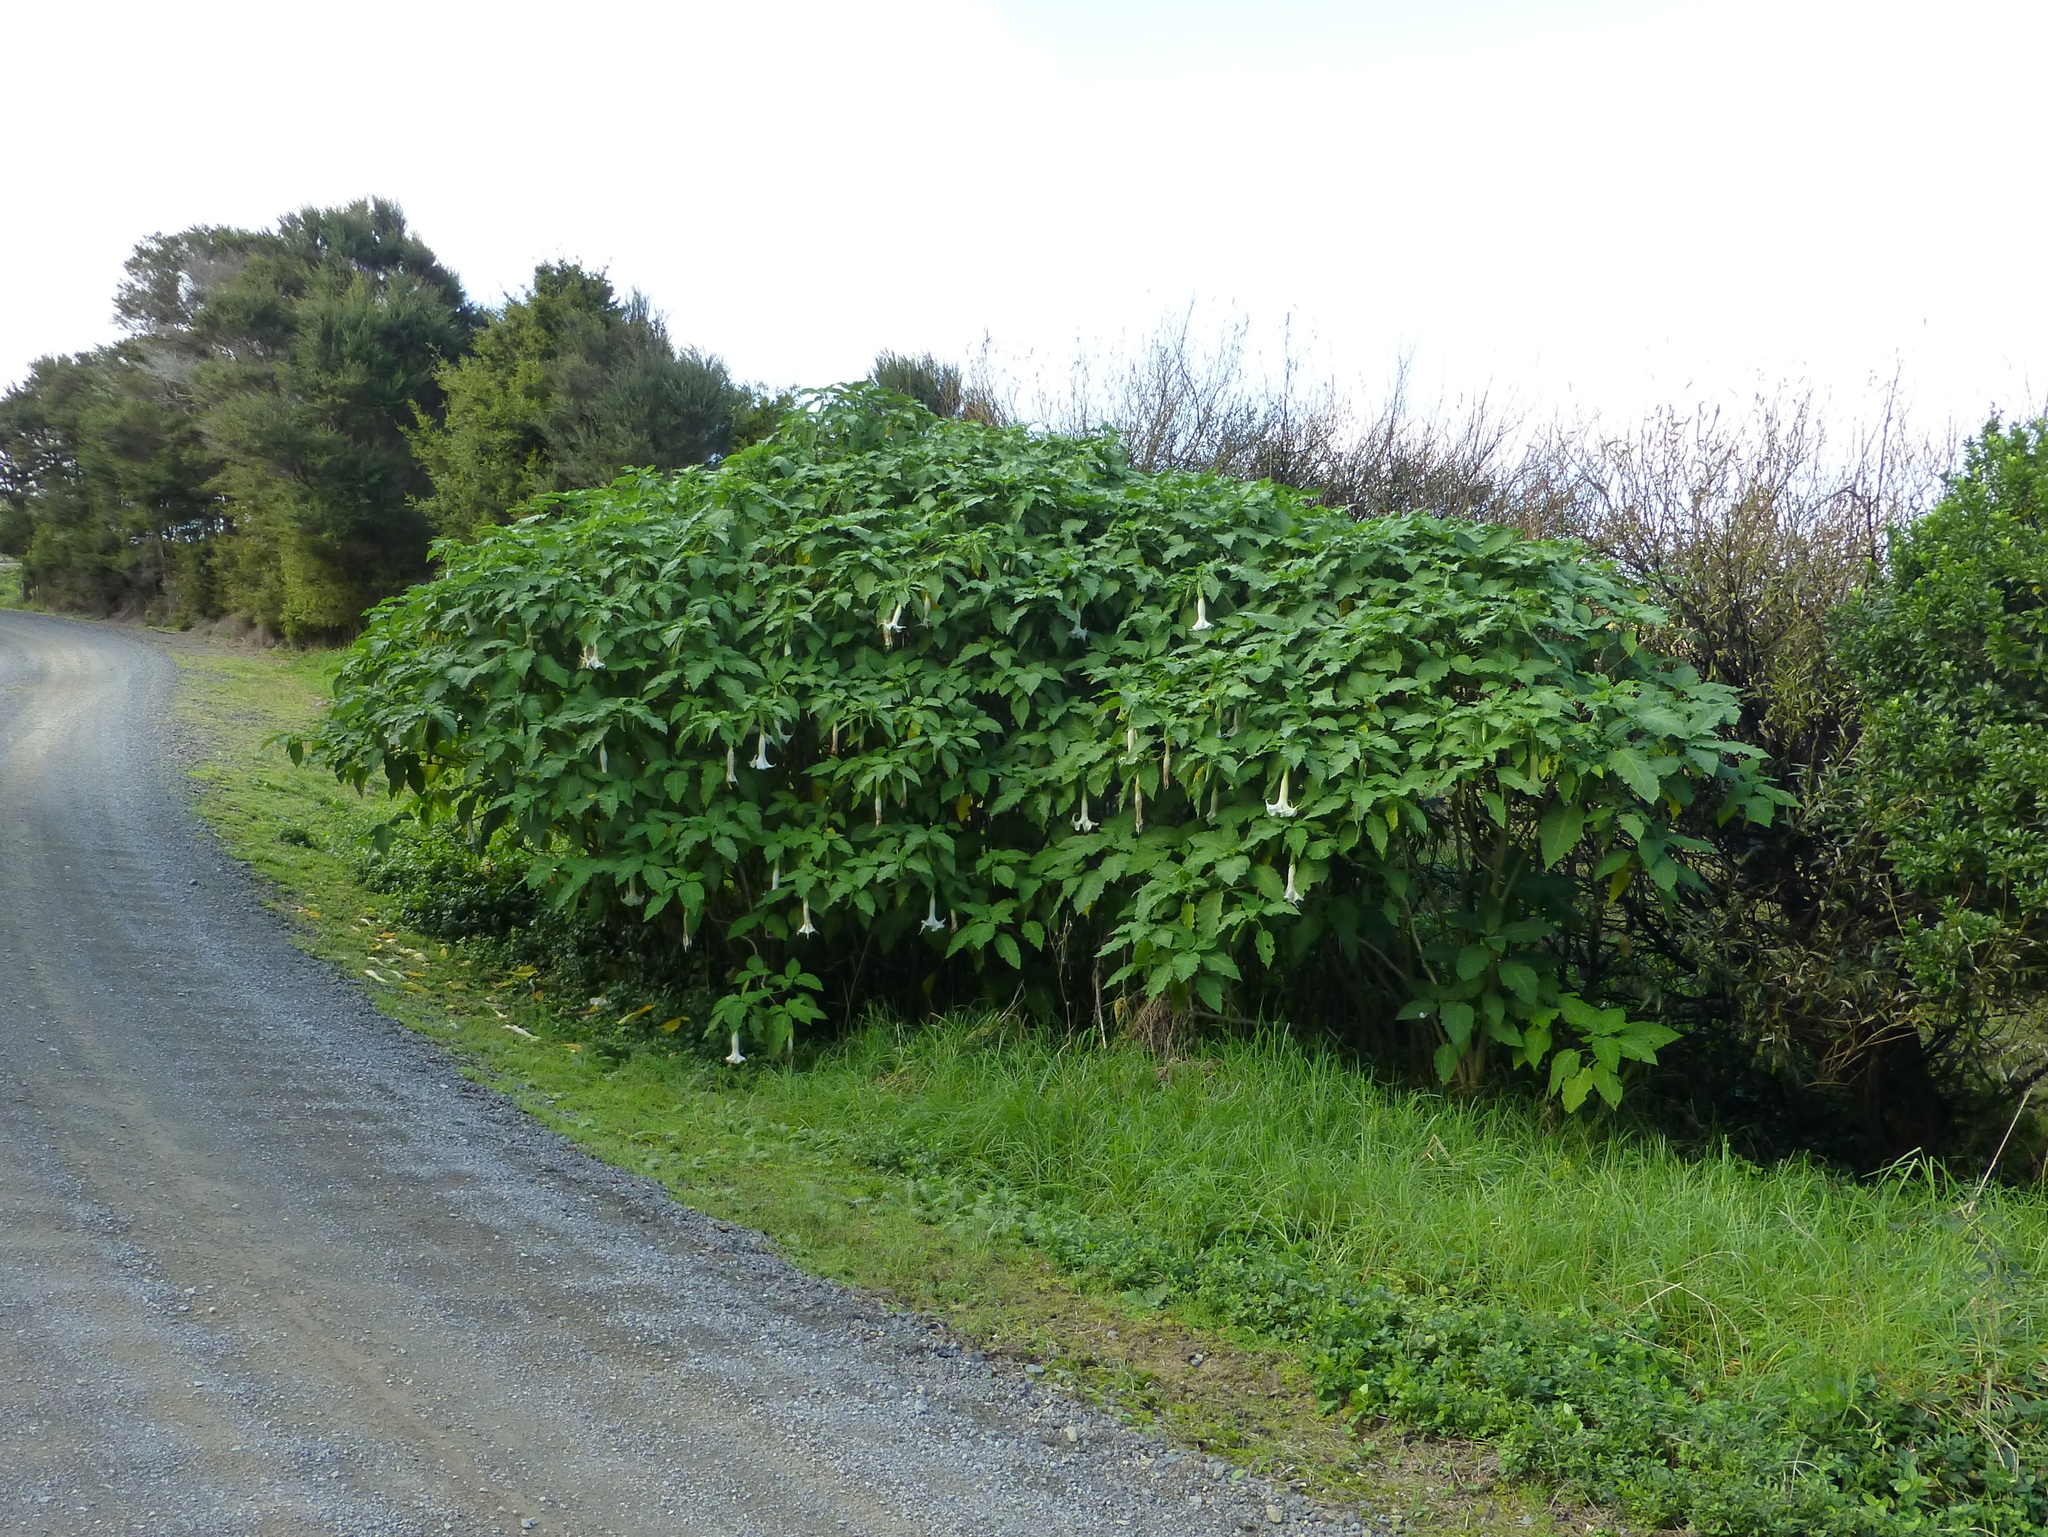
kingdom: Plantae
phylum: Tracheophyta
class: Magnoliopsida
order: Solanales
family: Solanaceae
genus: Brugmansia
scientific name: Brugmansia candida
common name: Angel's-trumpet
